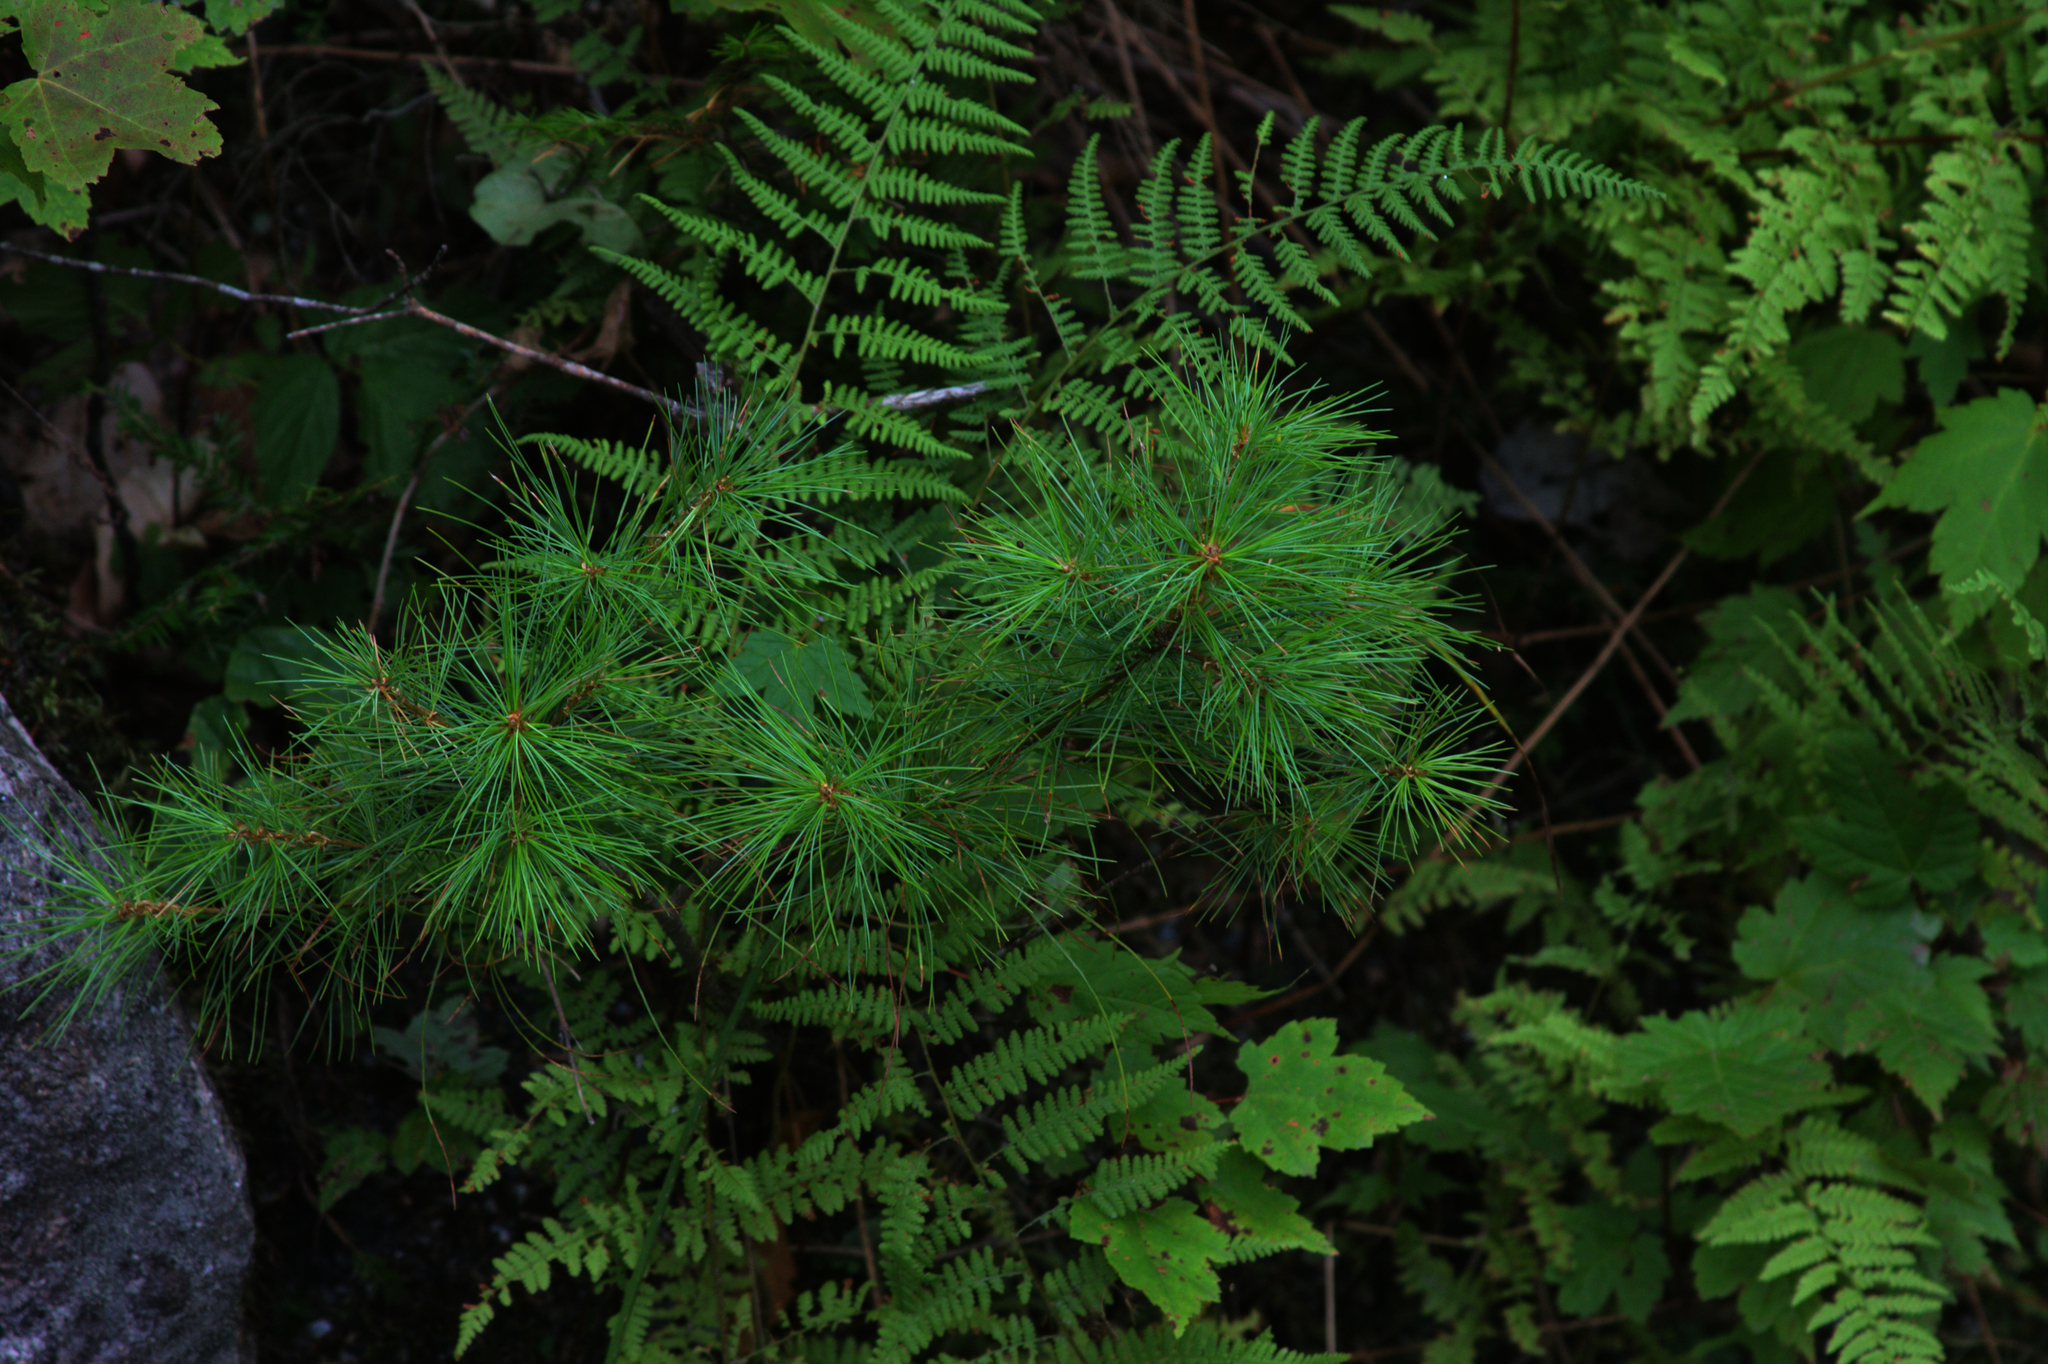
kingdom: Plantae
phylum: Tracheophyta
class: Pinopsida
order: Pinales
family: Pinaceae
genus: Pinus
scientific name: Pinus strobus
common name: Weymouth pine
